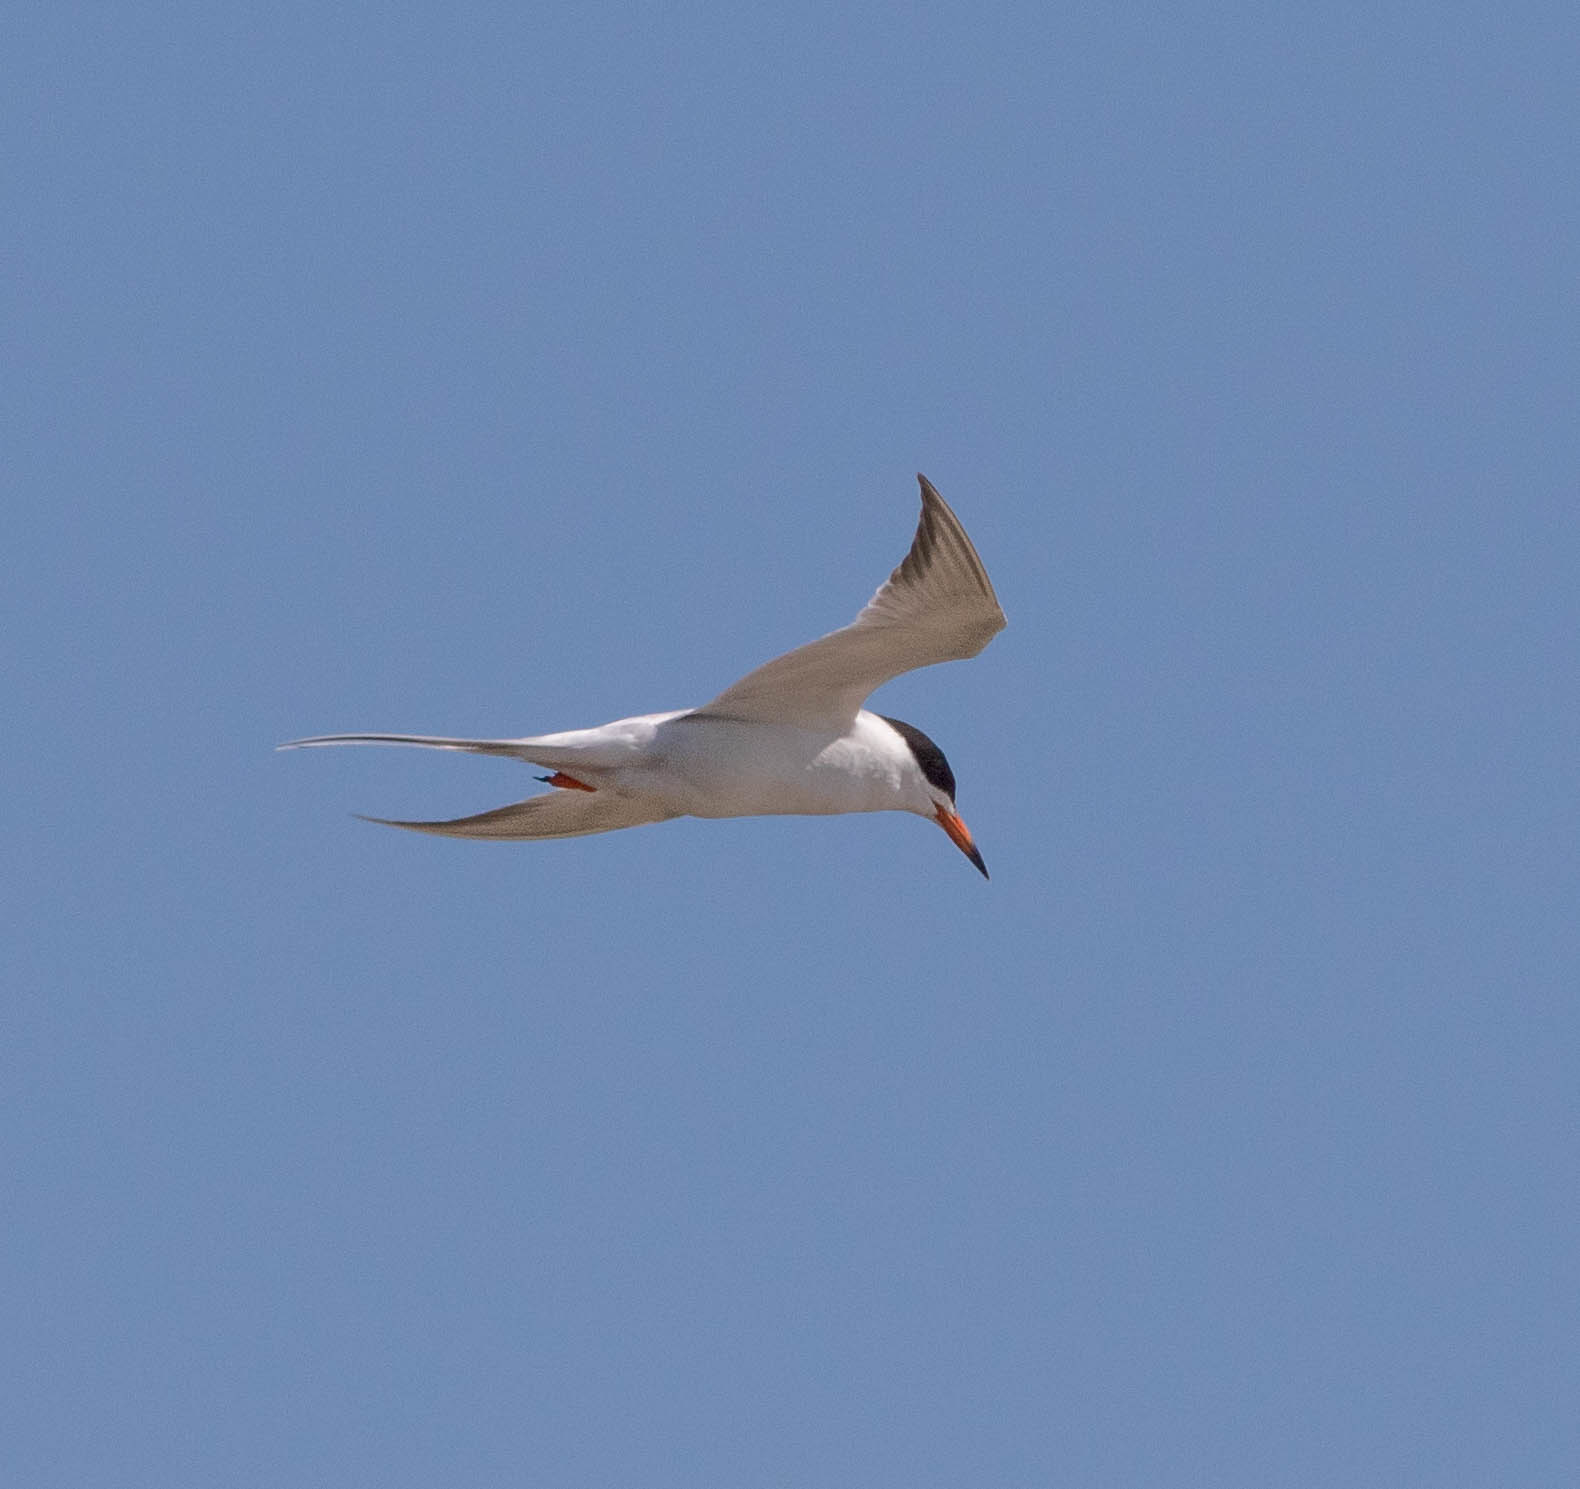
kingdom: Animalia
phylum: Chordata
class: Aves
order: Charadriiformes
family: Laridae
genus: Sterna
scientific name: Sterna forsteri
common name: Forster's tern
